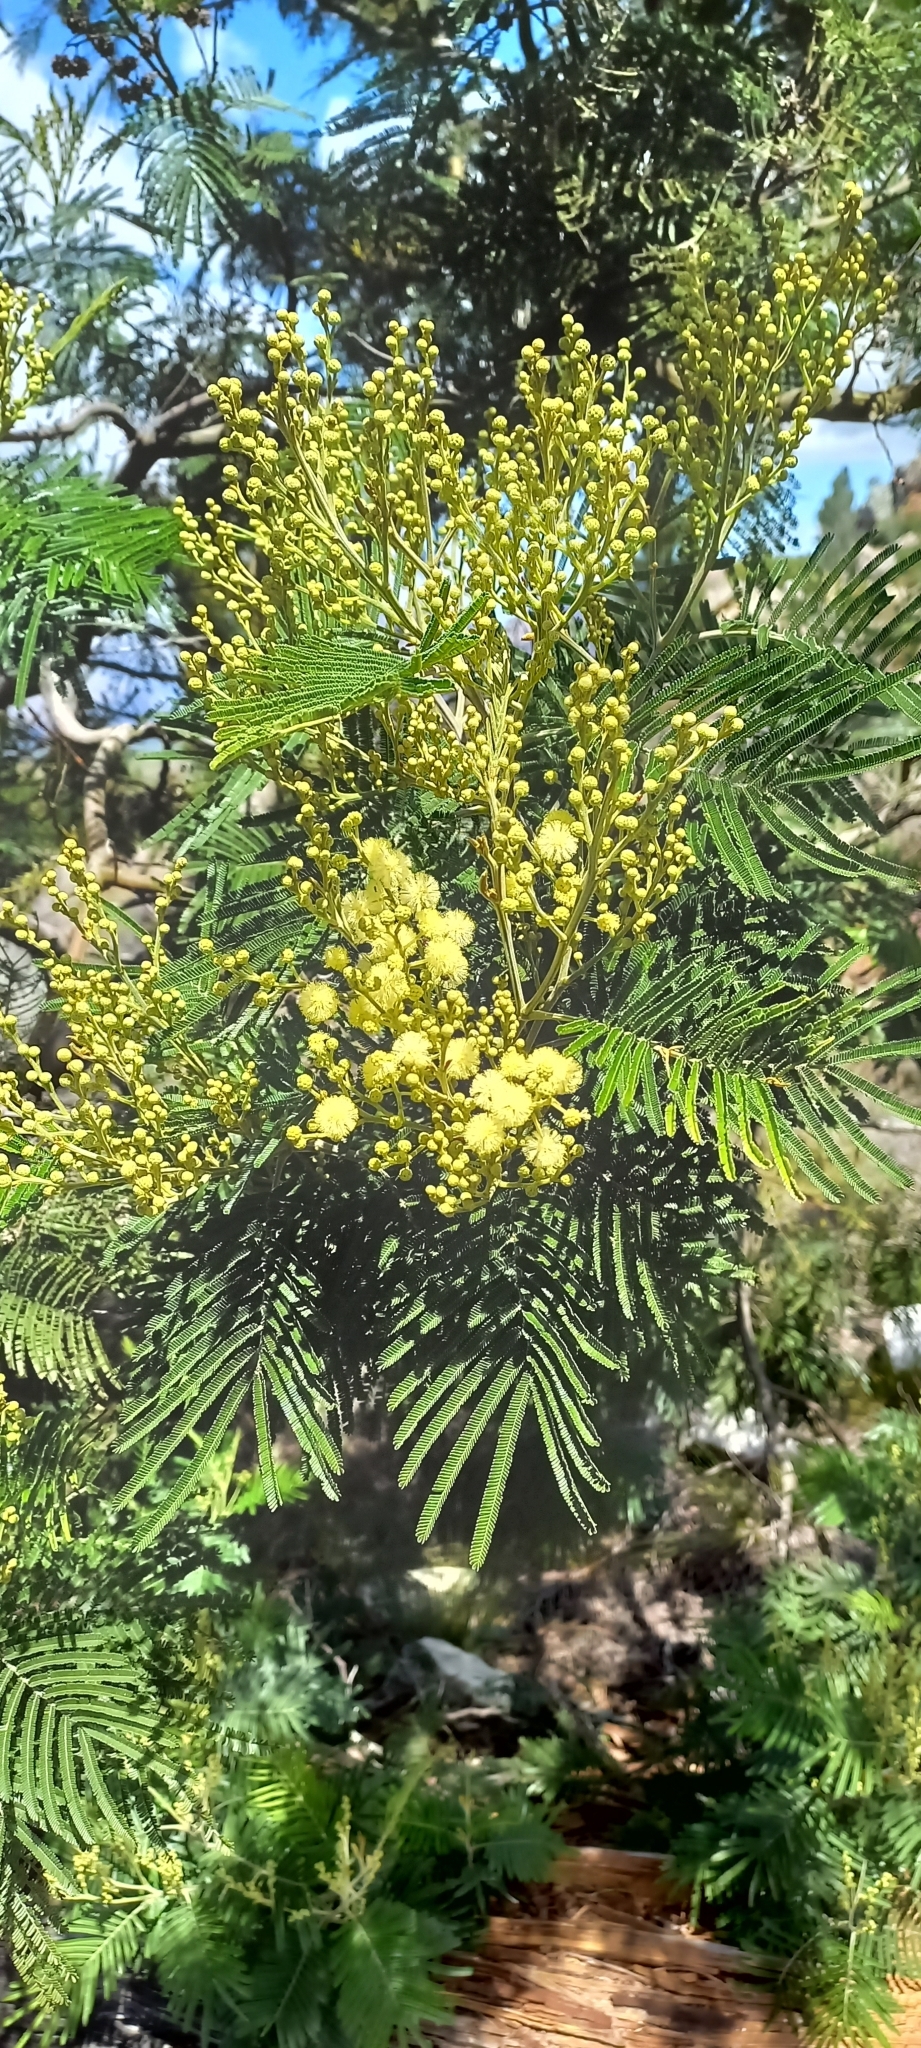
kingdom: Plantae
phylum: Tracheophyta
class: Magnoliopsida
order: Fabales
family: Fabaceae
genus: Acacia
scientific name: Acacia mearnsii
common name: Black wattle
